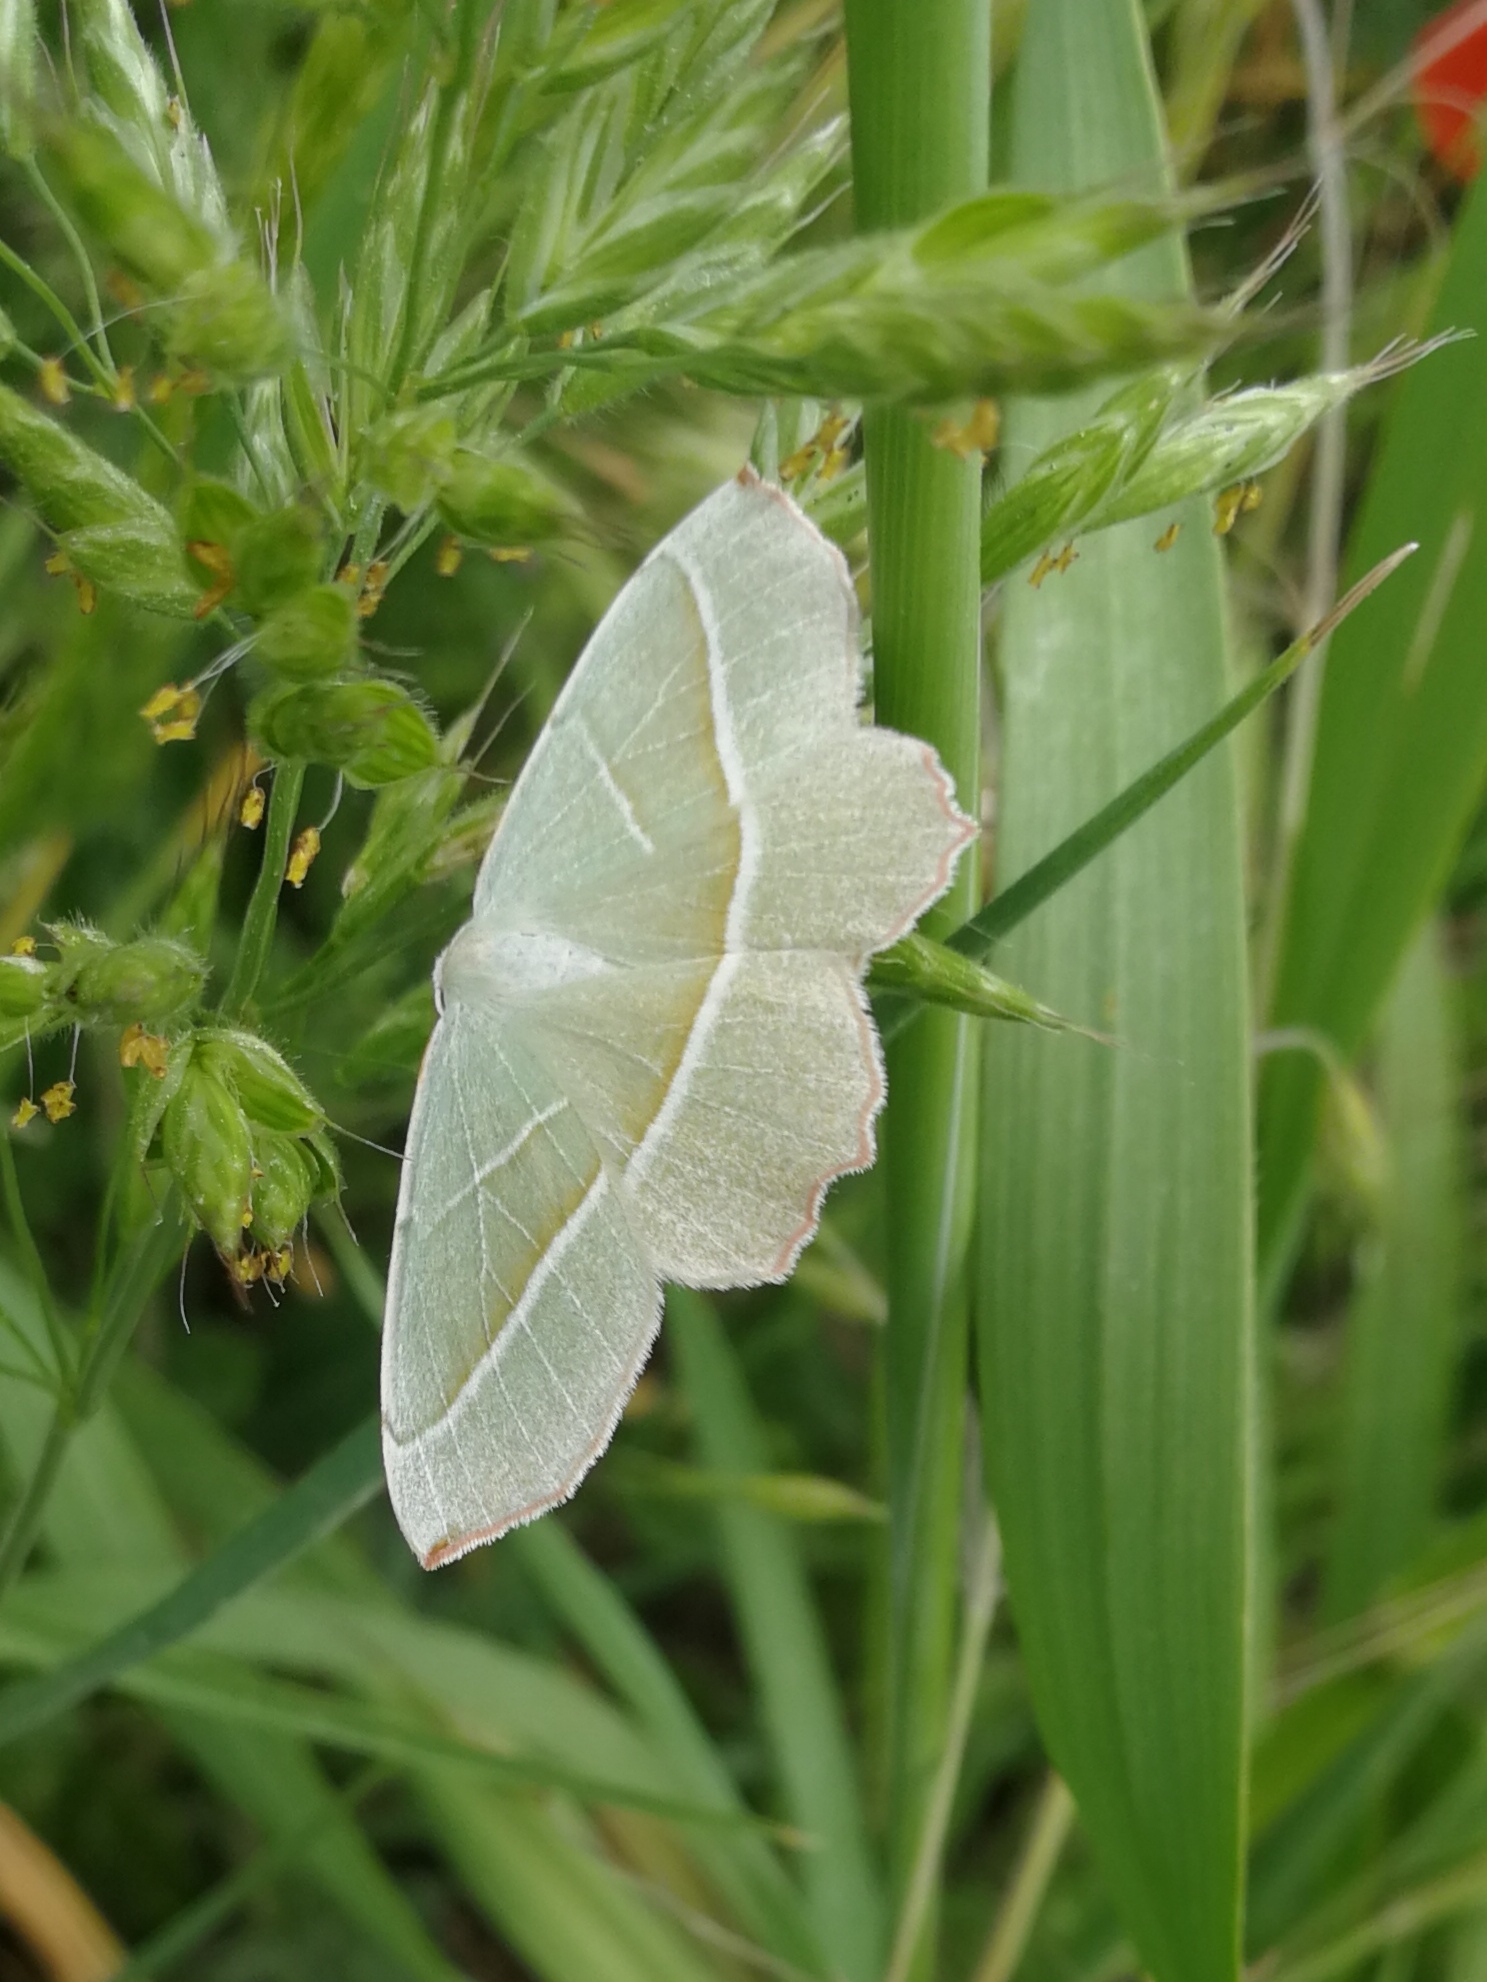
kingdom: Animalia
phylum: Arthropoda
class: Insecta
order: Lepidoptera
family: Geometridae
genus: Campaea
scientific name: Campaea margaritaria
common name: Light emerald
